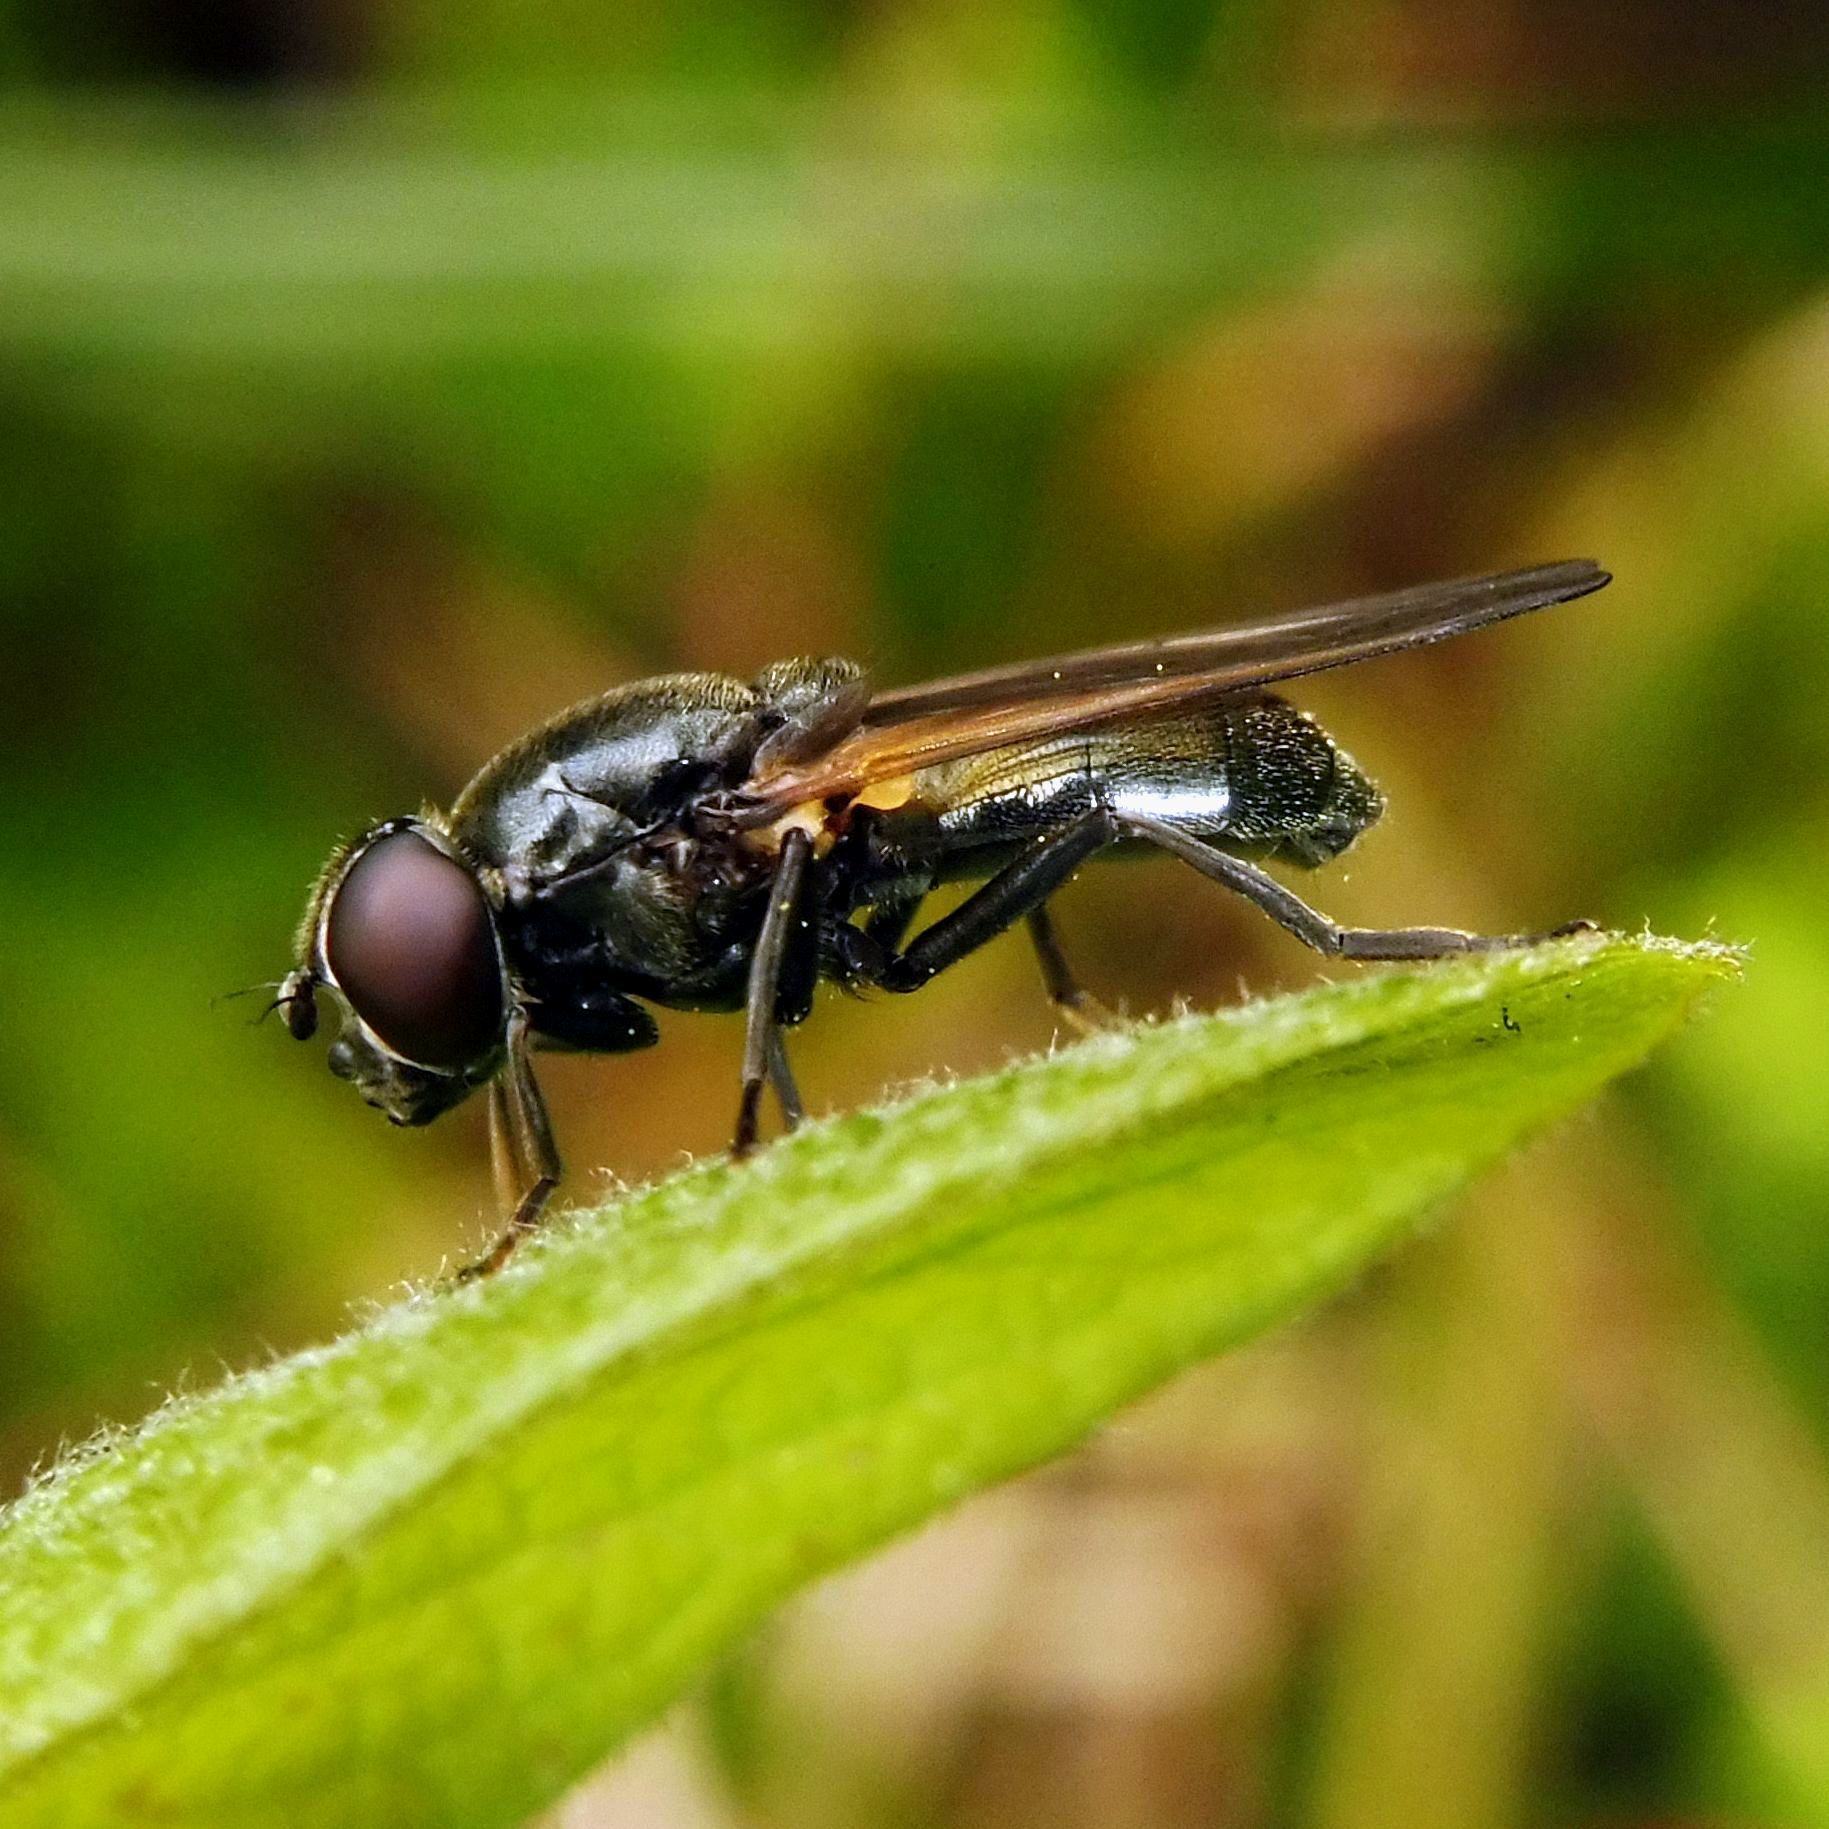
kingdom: Animalia
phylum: Arthropoda
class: Insecta
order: Diptera
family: Syrphidae
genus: Cheilosia
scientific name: Cheilosia
